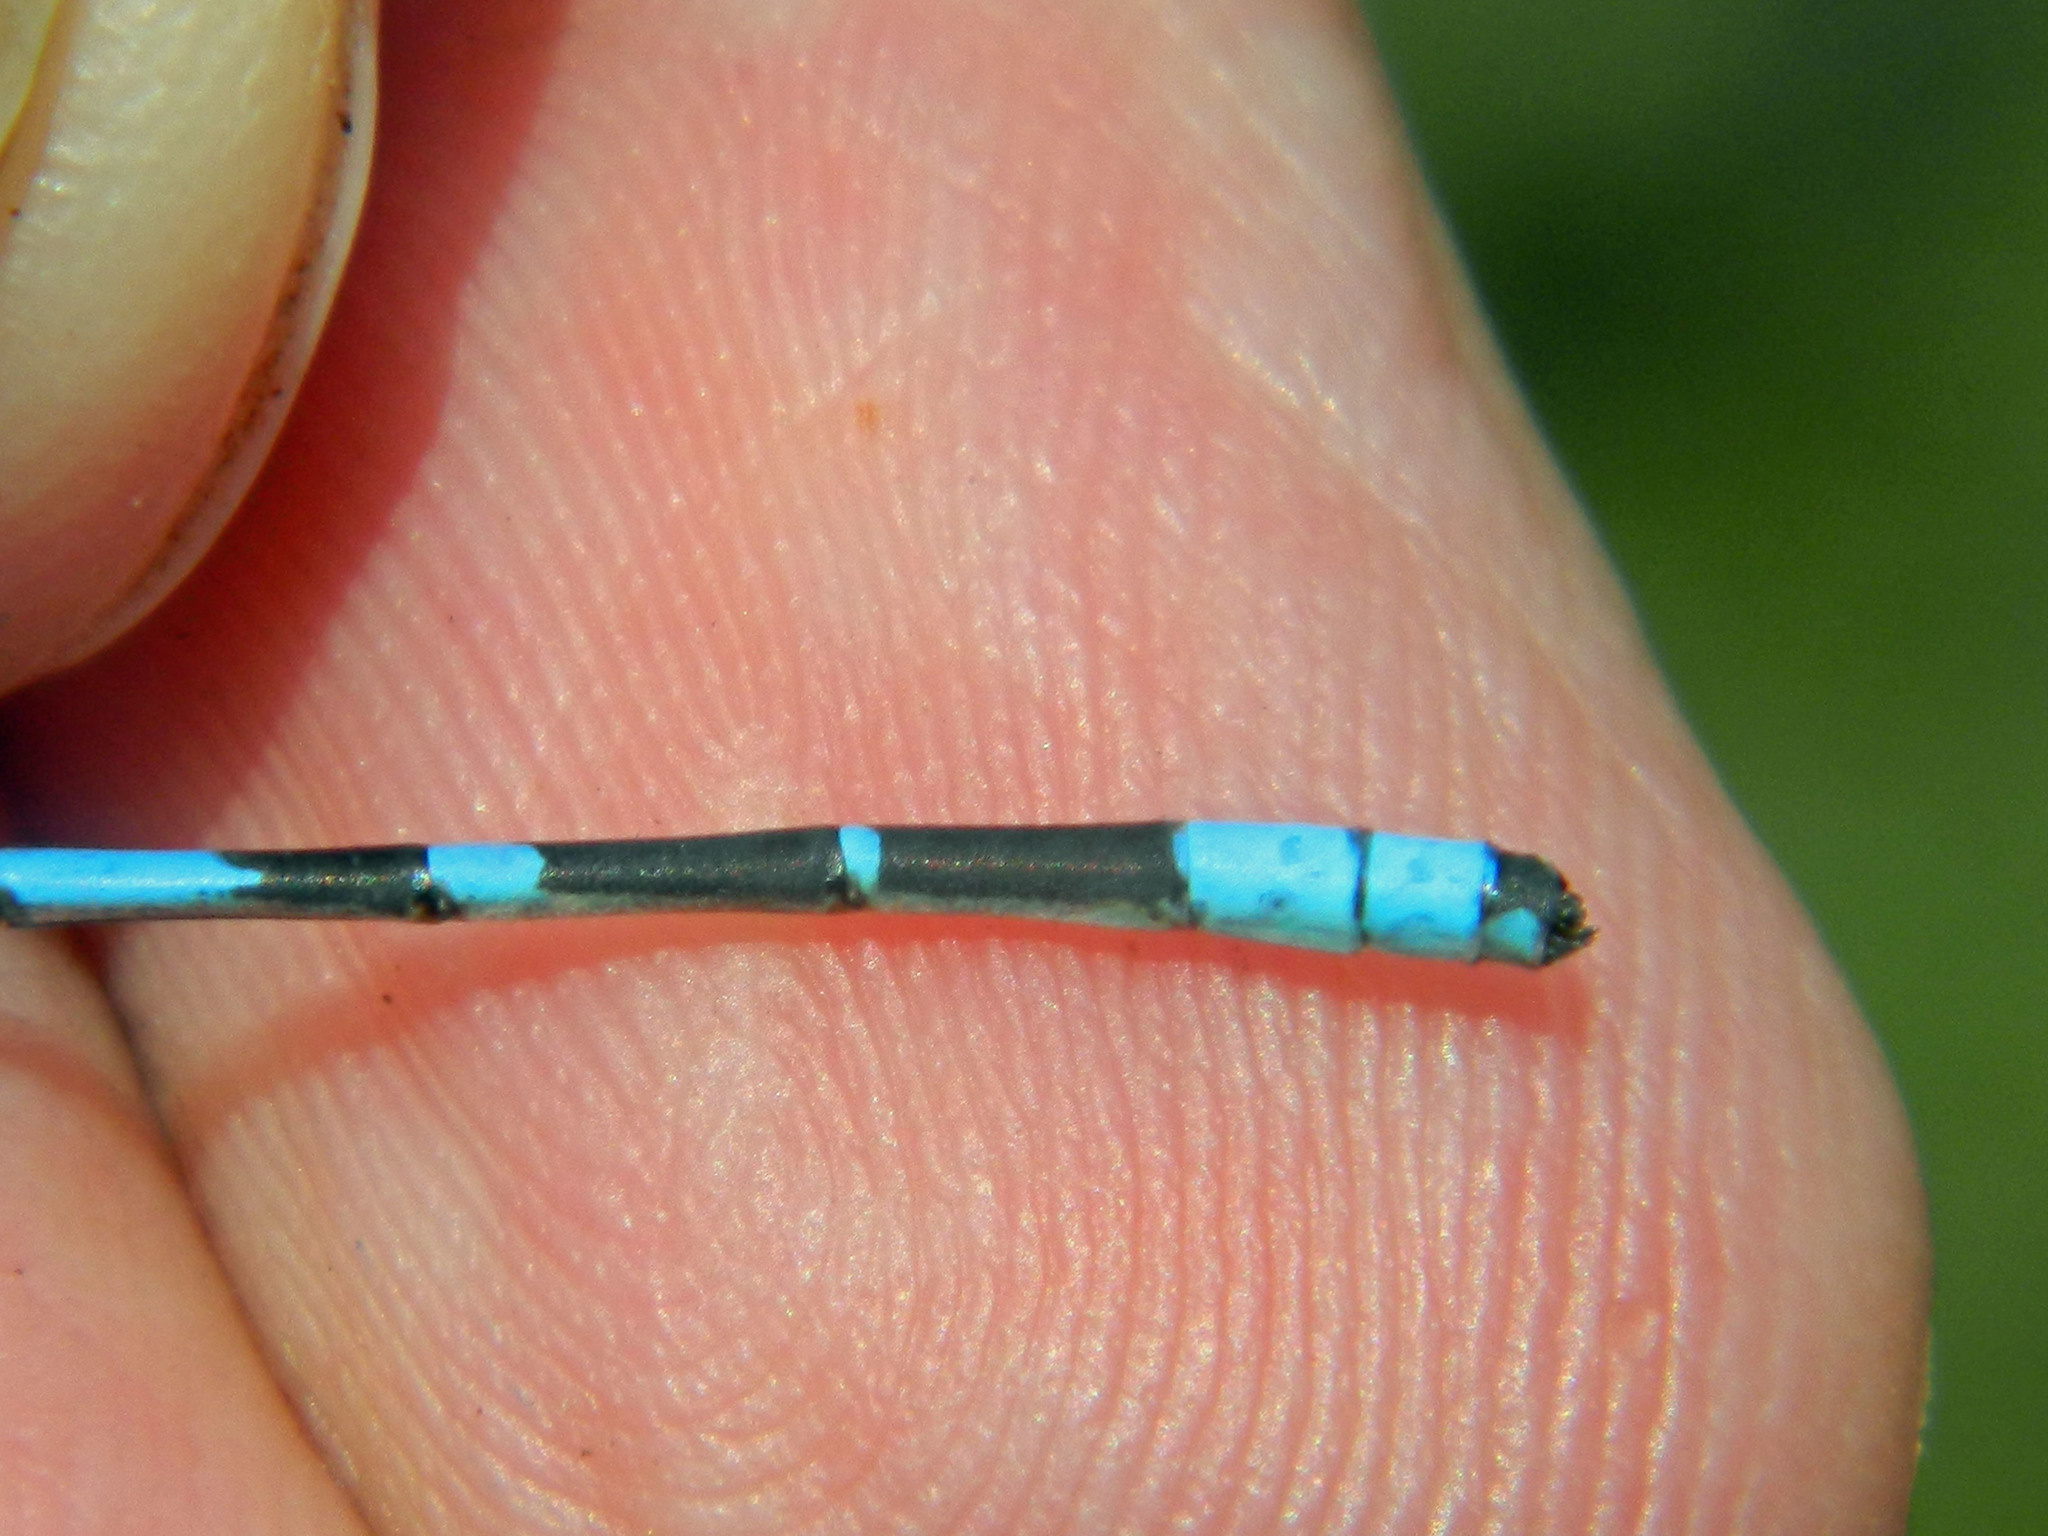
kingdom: Animalia
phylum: Arthropoda
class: Insecta
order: Odonata
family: Coenagrionidae
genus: Enallagma
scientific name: Enallagma boreale
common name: Boreal bluet
